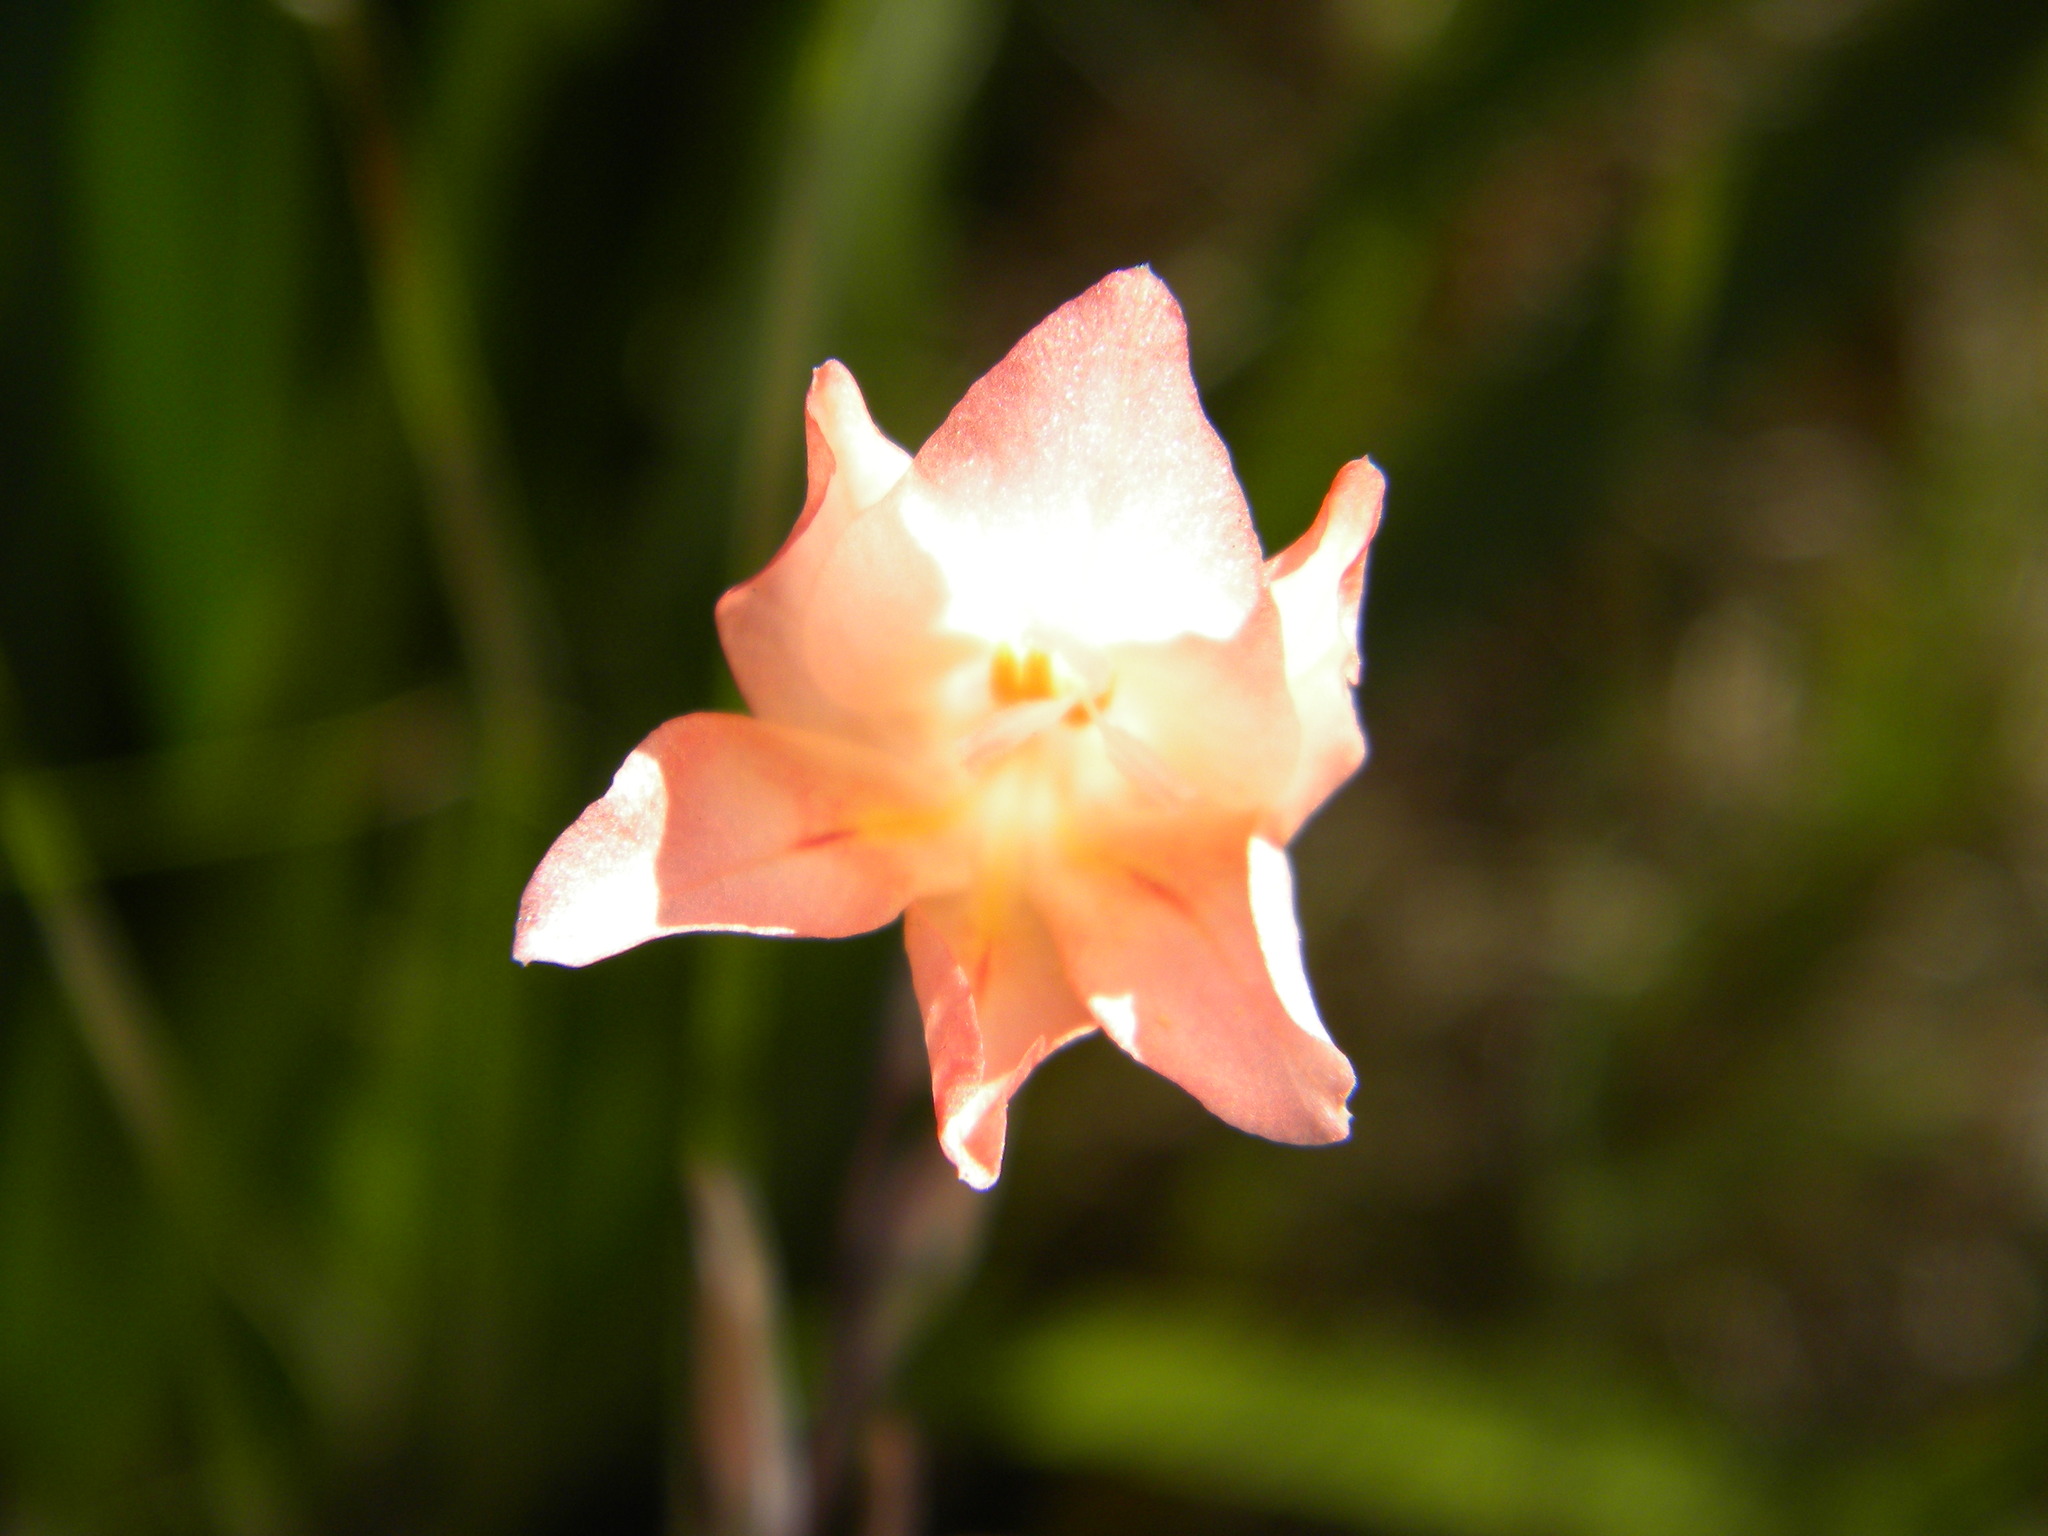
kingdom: Plantae
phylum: Tracheophyta
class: Liliopsida
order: Asparagales
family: Iridaceae
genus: Gladiolus
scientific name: Gladiolus monticola
